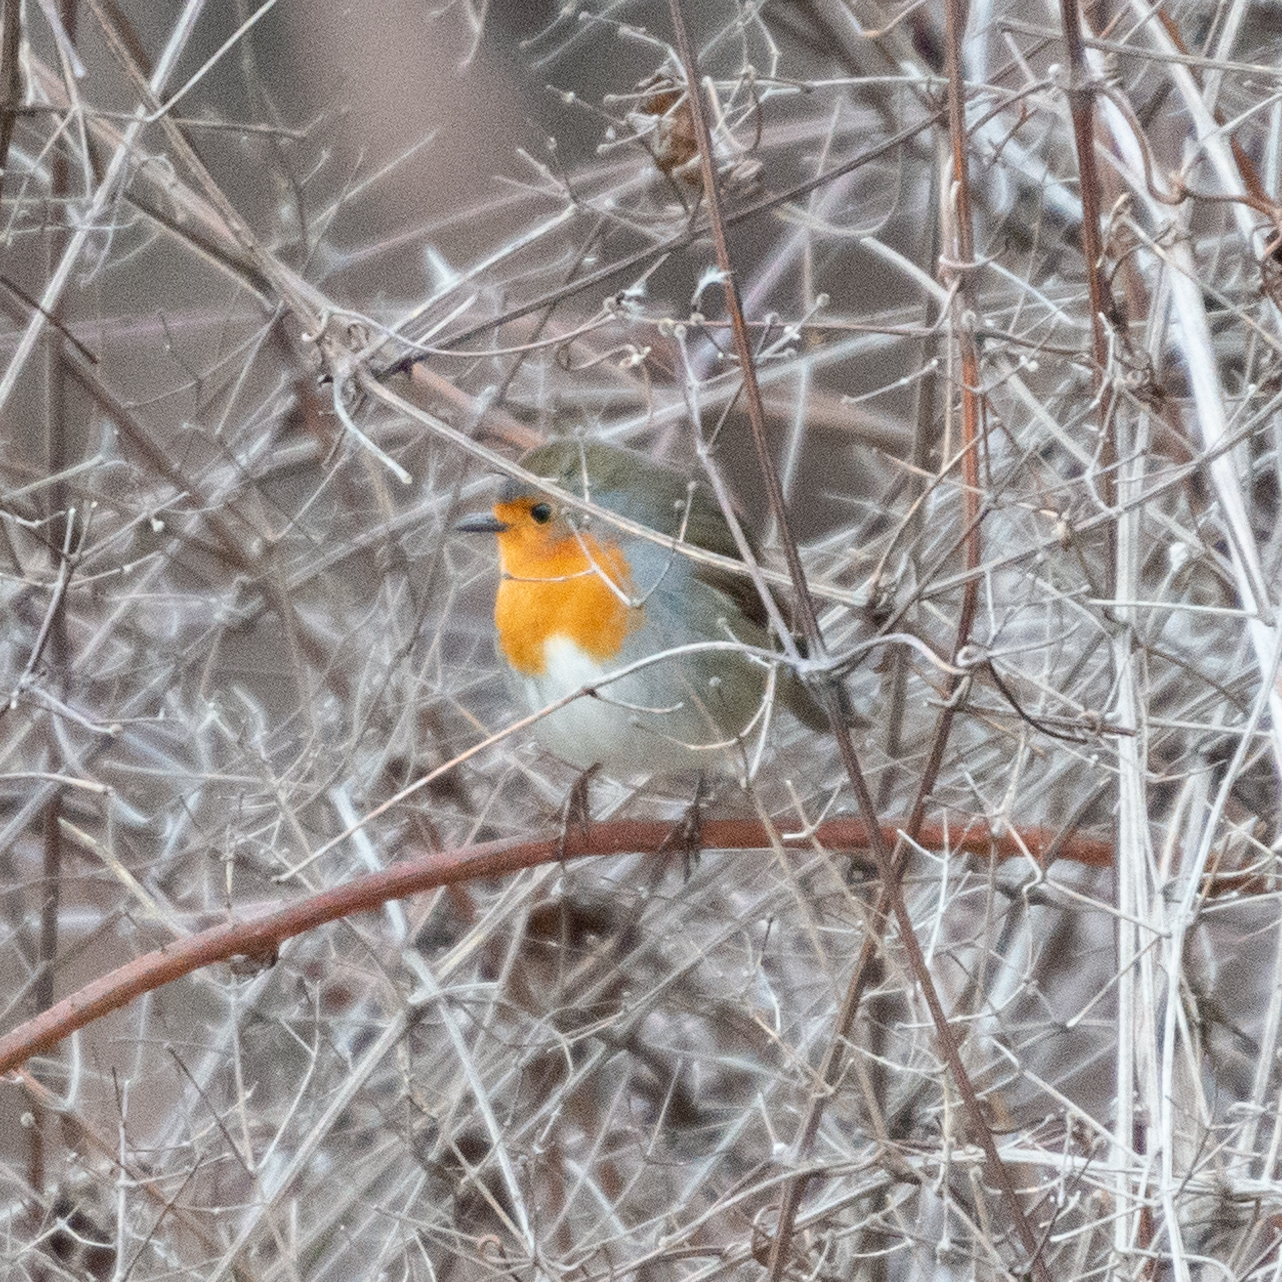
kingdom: Animalia
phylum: Chordata
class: Aves
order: Passeriformes
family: Muscicapidae
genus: Erithacus
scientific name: Erithacus rubecula
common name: European robin
